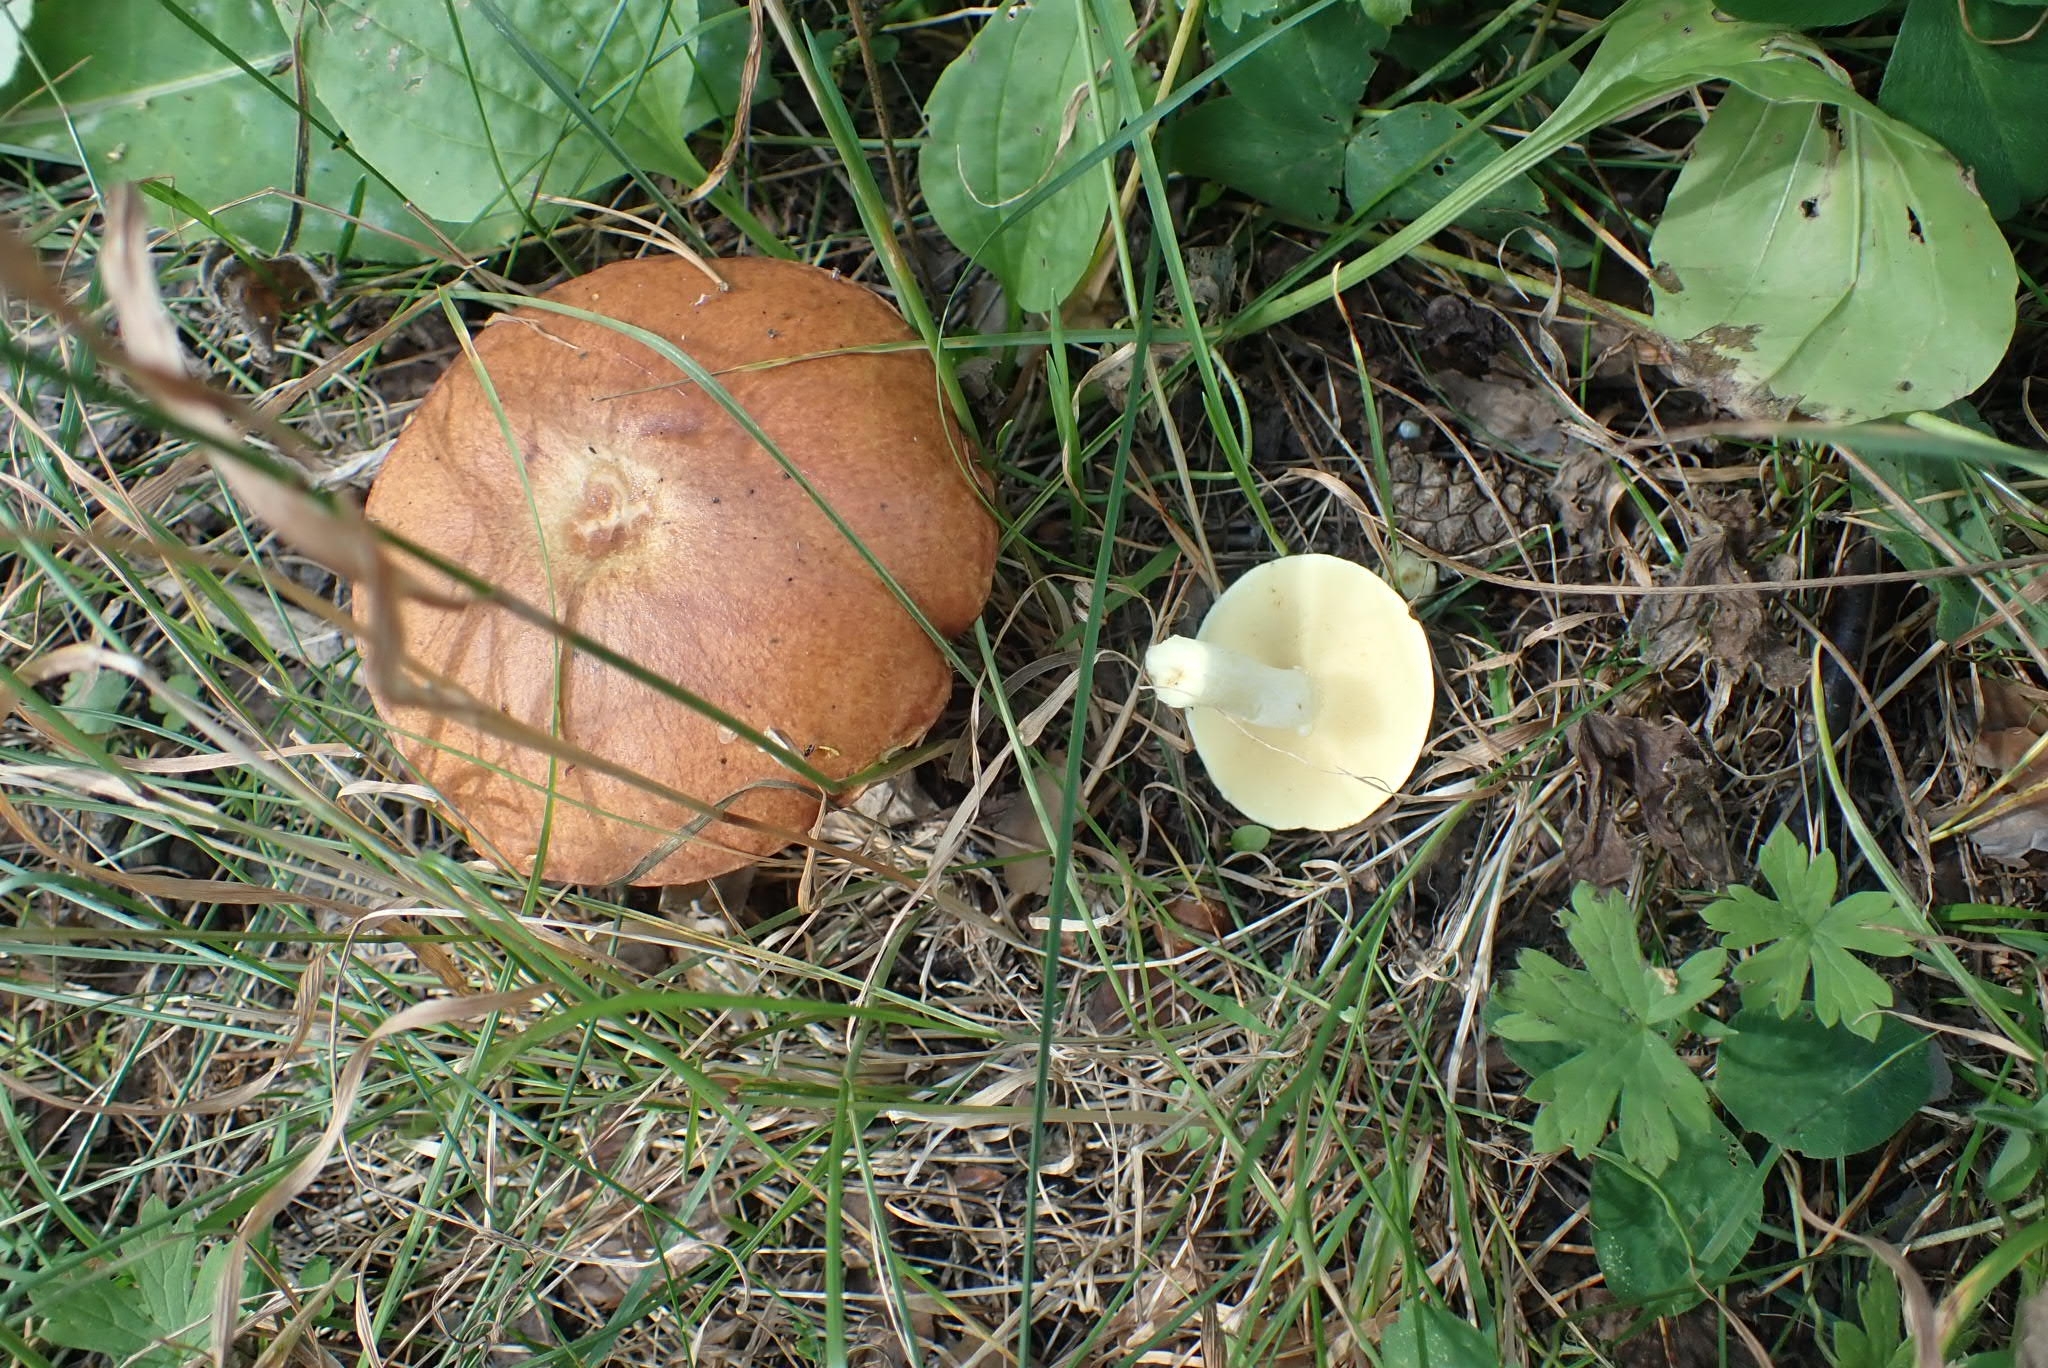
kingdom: Fungi
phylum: Basidiomycota
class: Agaricomycetes
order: Boletales
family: Suillaceae
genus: Suillus
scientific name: Suillus granulatus
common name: Weeping bolete
